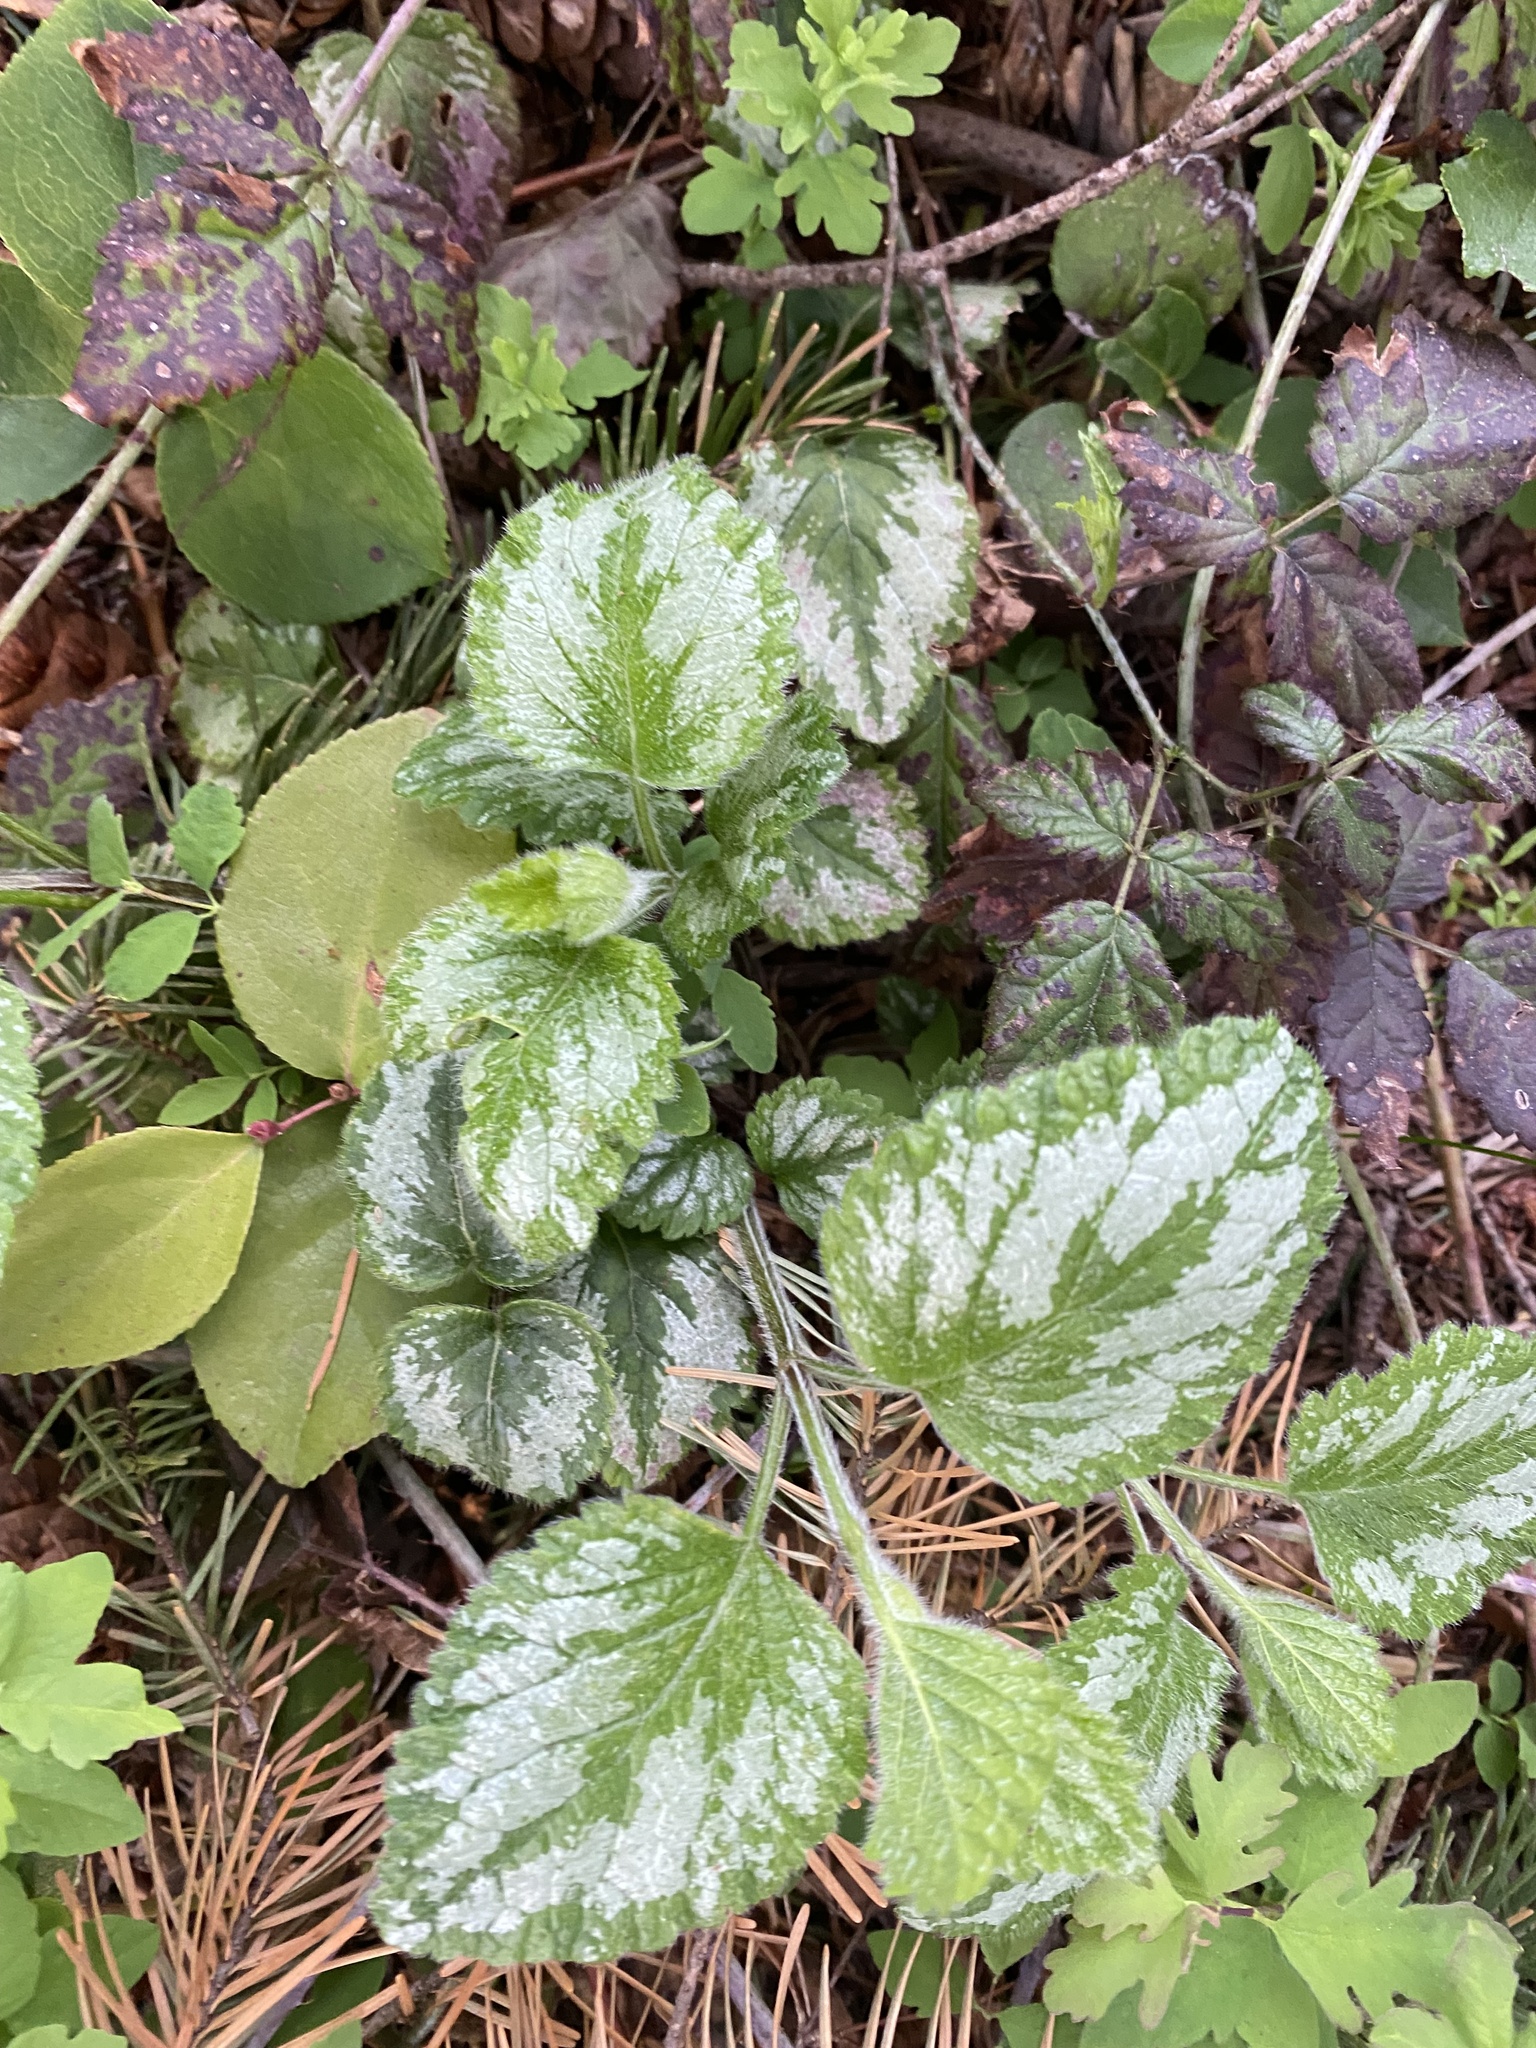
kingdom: Plantae
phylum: Tracheophyta
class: Magnoliopsida
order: Lamiales
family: Lamiaceae
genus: Lamium
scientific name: Lamium galeobdolon
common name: Yellow archangel
